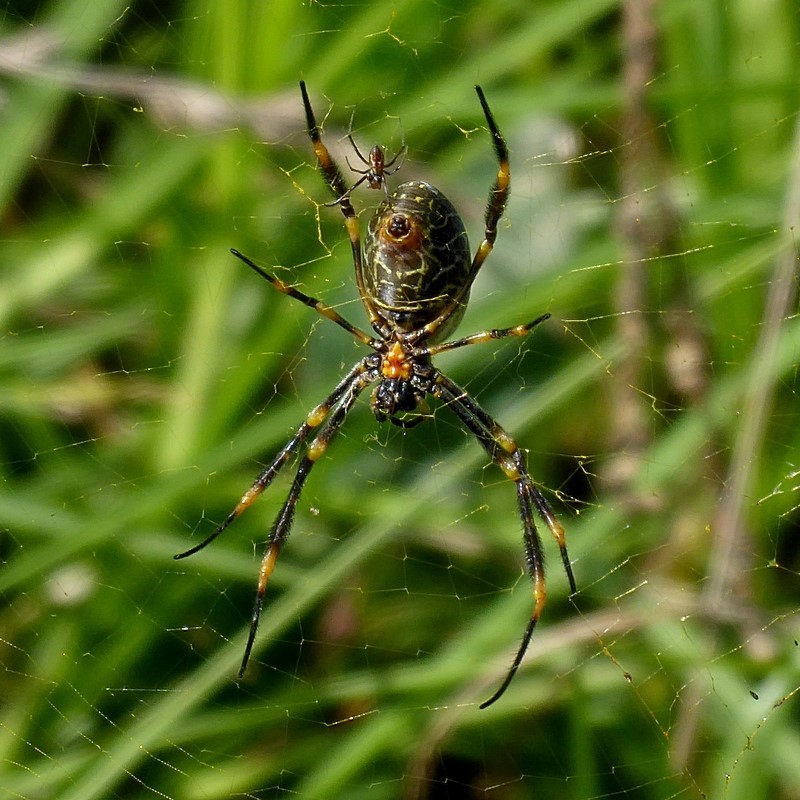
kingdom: Animalia
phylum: Arthropoda
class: Arachnida
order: Araneae
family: Araneidae
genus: Trichonephila
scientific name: Trichonephila plumipes
